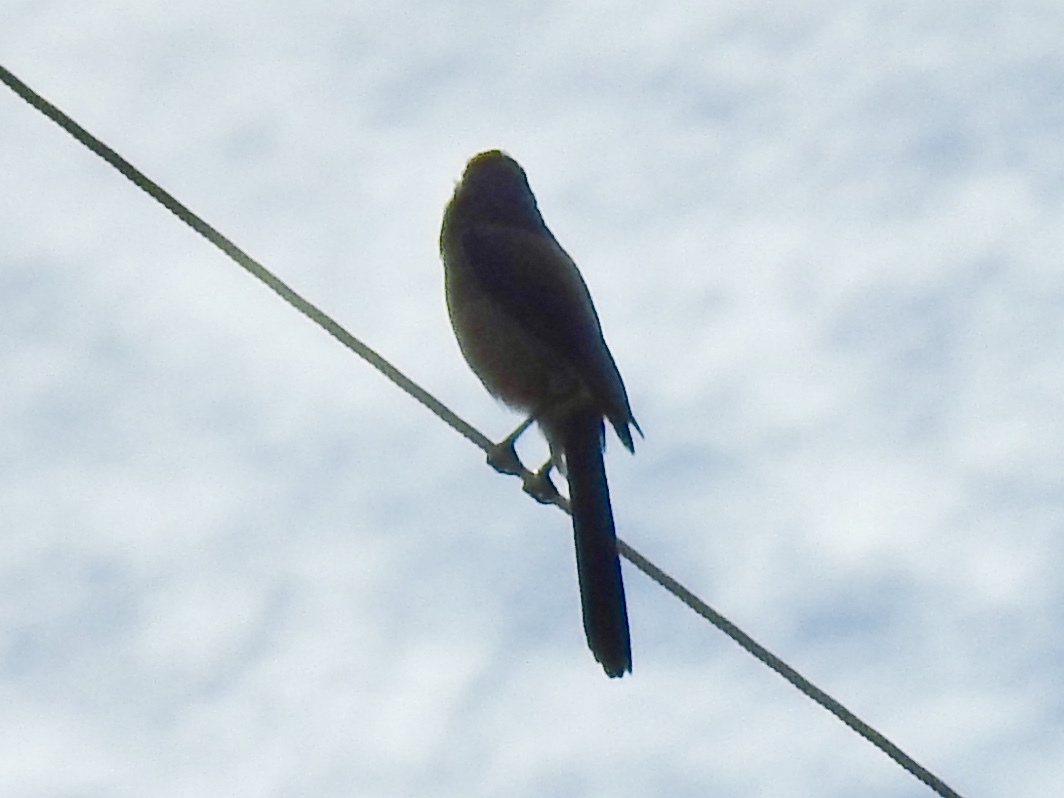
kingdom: Animalia
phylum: Chordata
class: Aves
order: Passeriformes
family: Corvidae
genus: Aphelocoma
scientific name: Aphelocoma woodhouseii
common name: Woodhouse's scrub-jay
